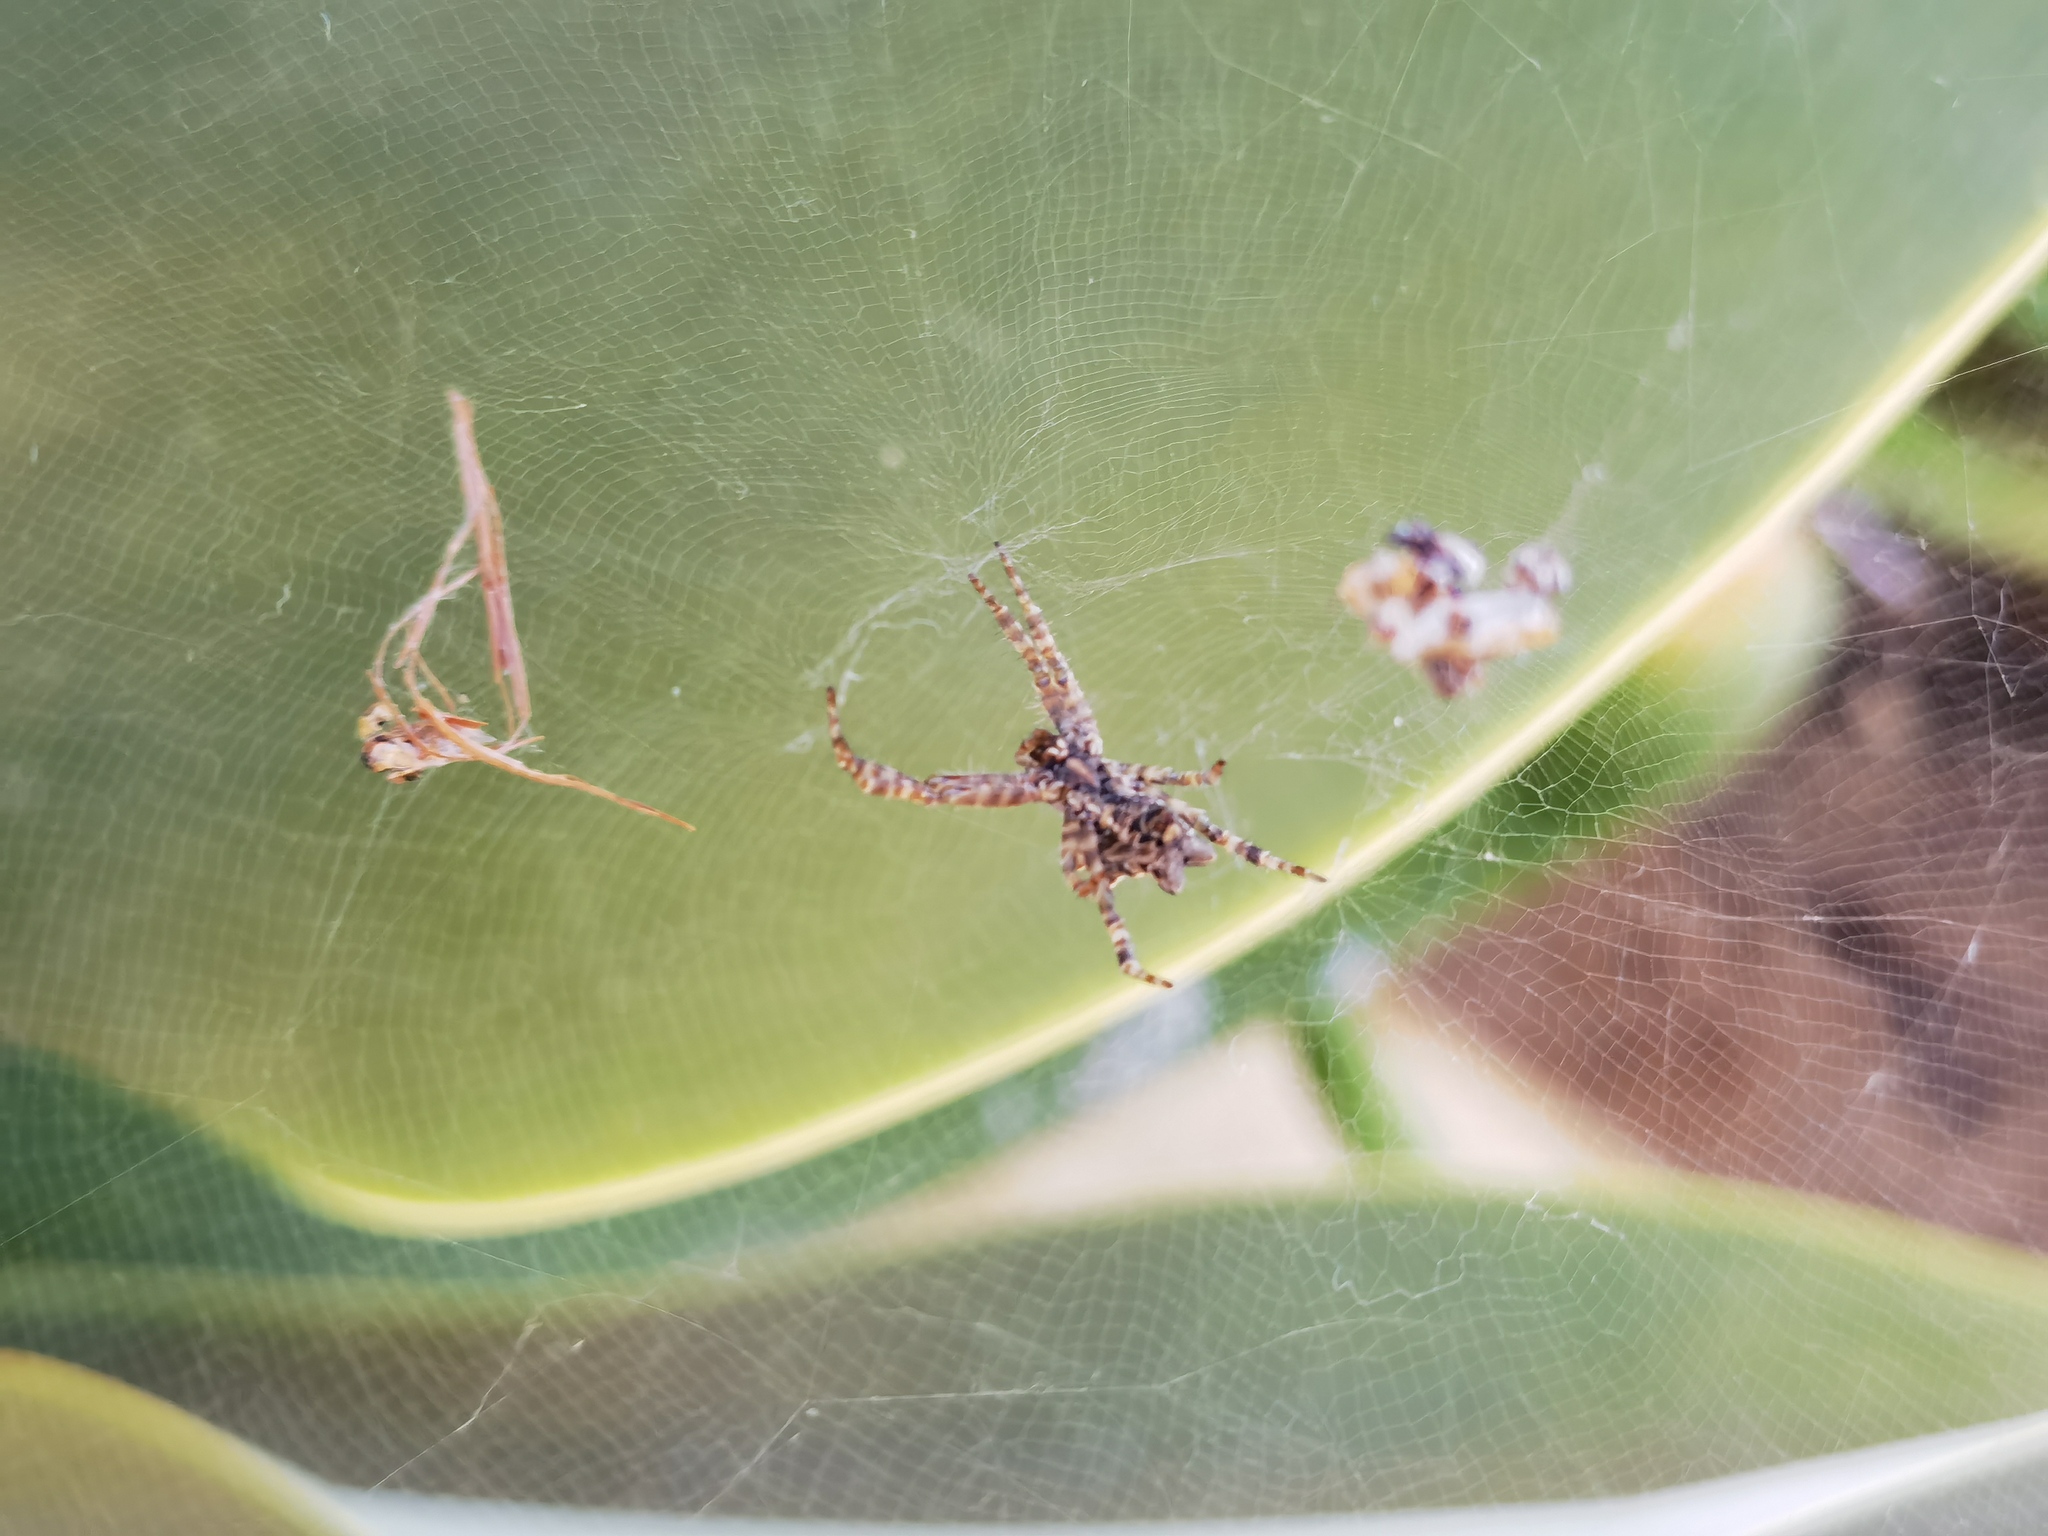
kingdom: Animalia
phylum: Arthropoda
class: Arachnida
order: Araneae
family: Araneidae
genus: Cyrtophora
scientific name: Cyrtophora citricola
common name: Orb weavers
